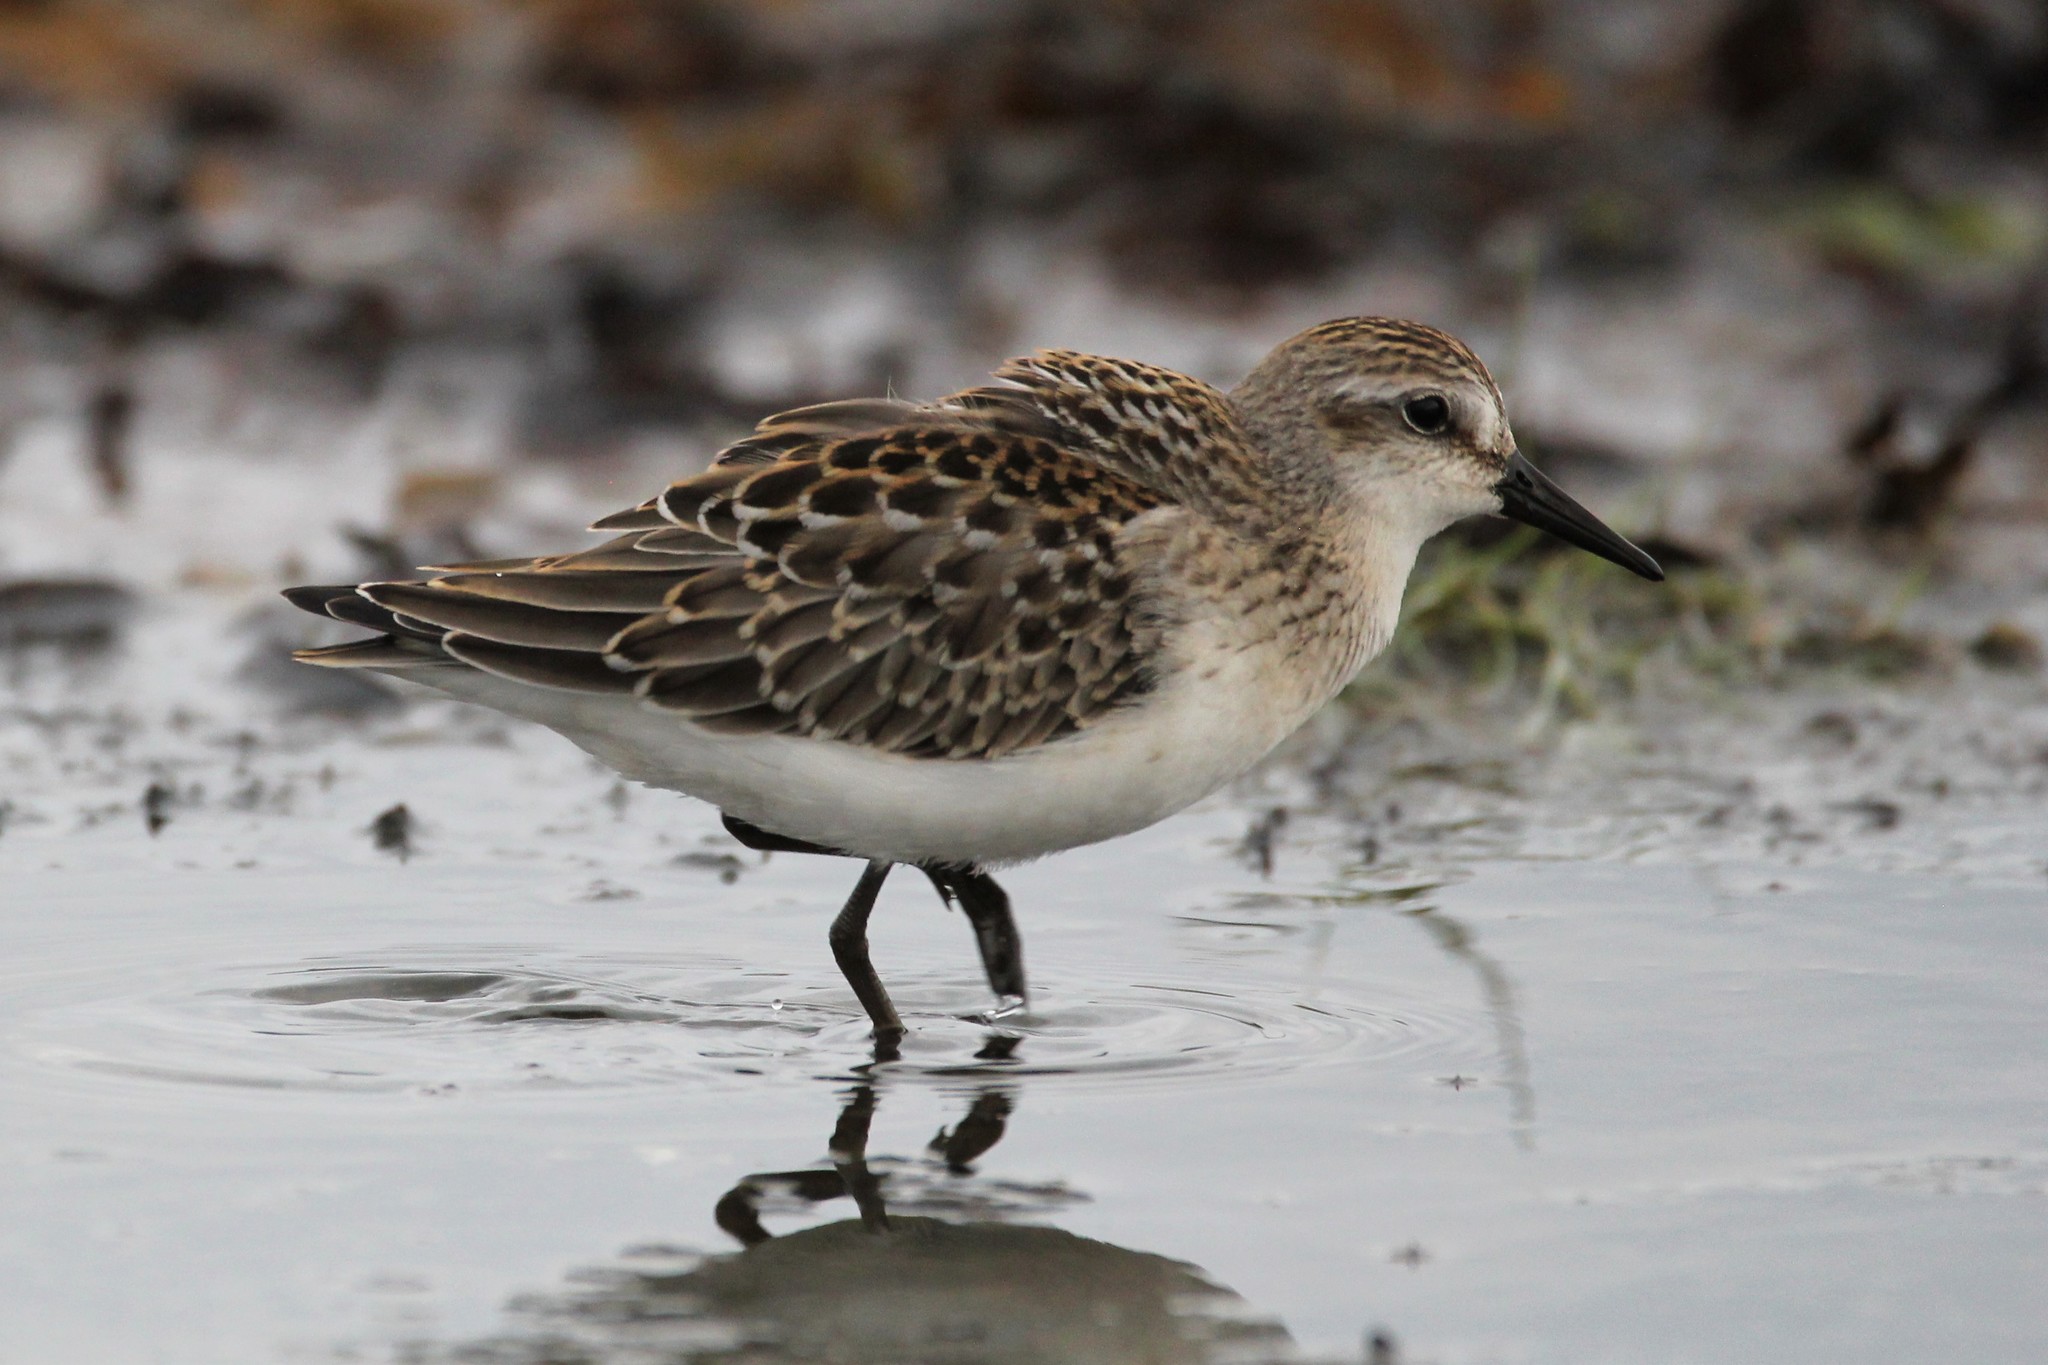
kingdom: Animalia
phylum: Chordata
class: Aves
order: Charadriiformes
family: Scolopacidae
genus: Calidris
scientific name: Calidris pusilla
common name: Semipalmated sandpiper
